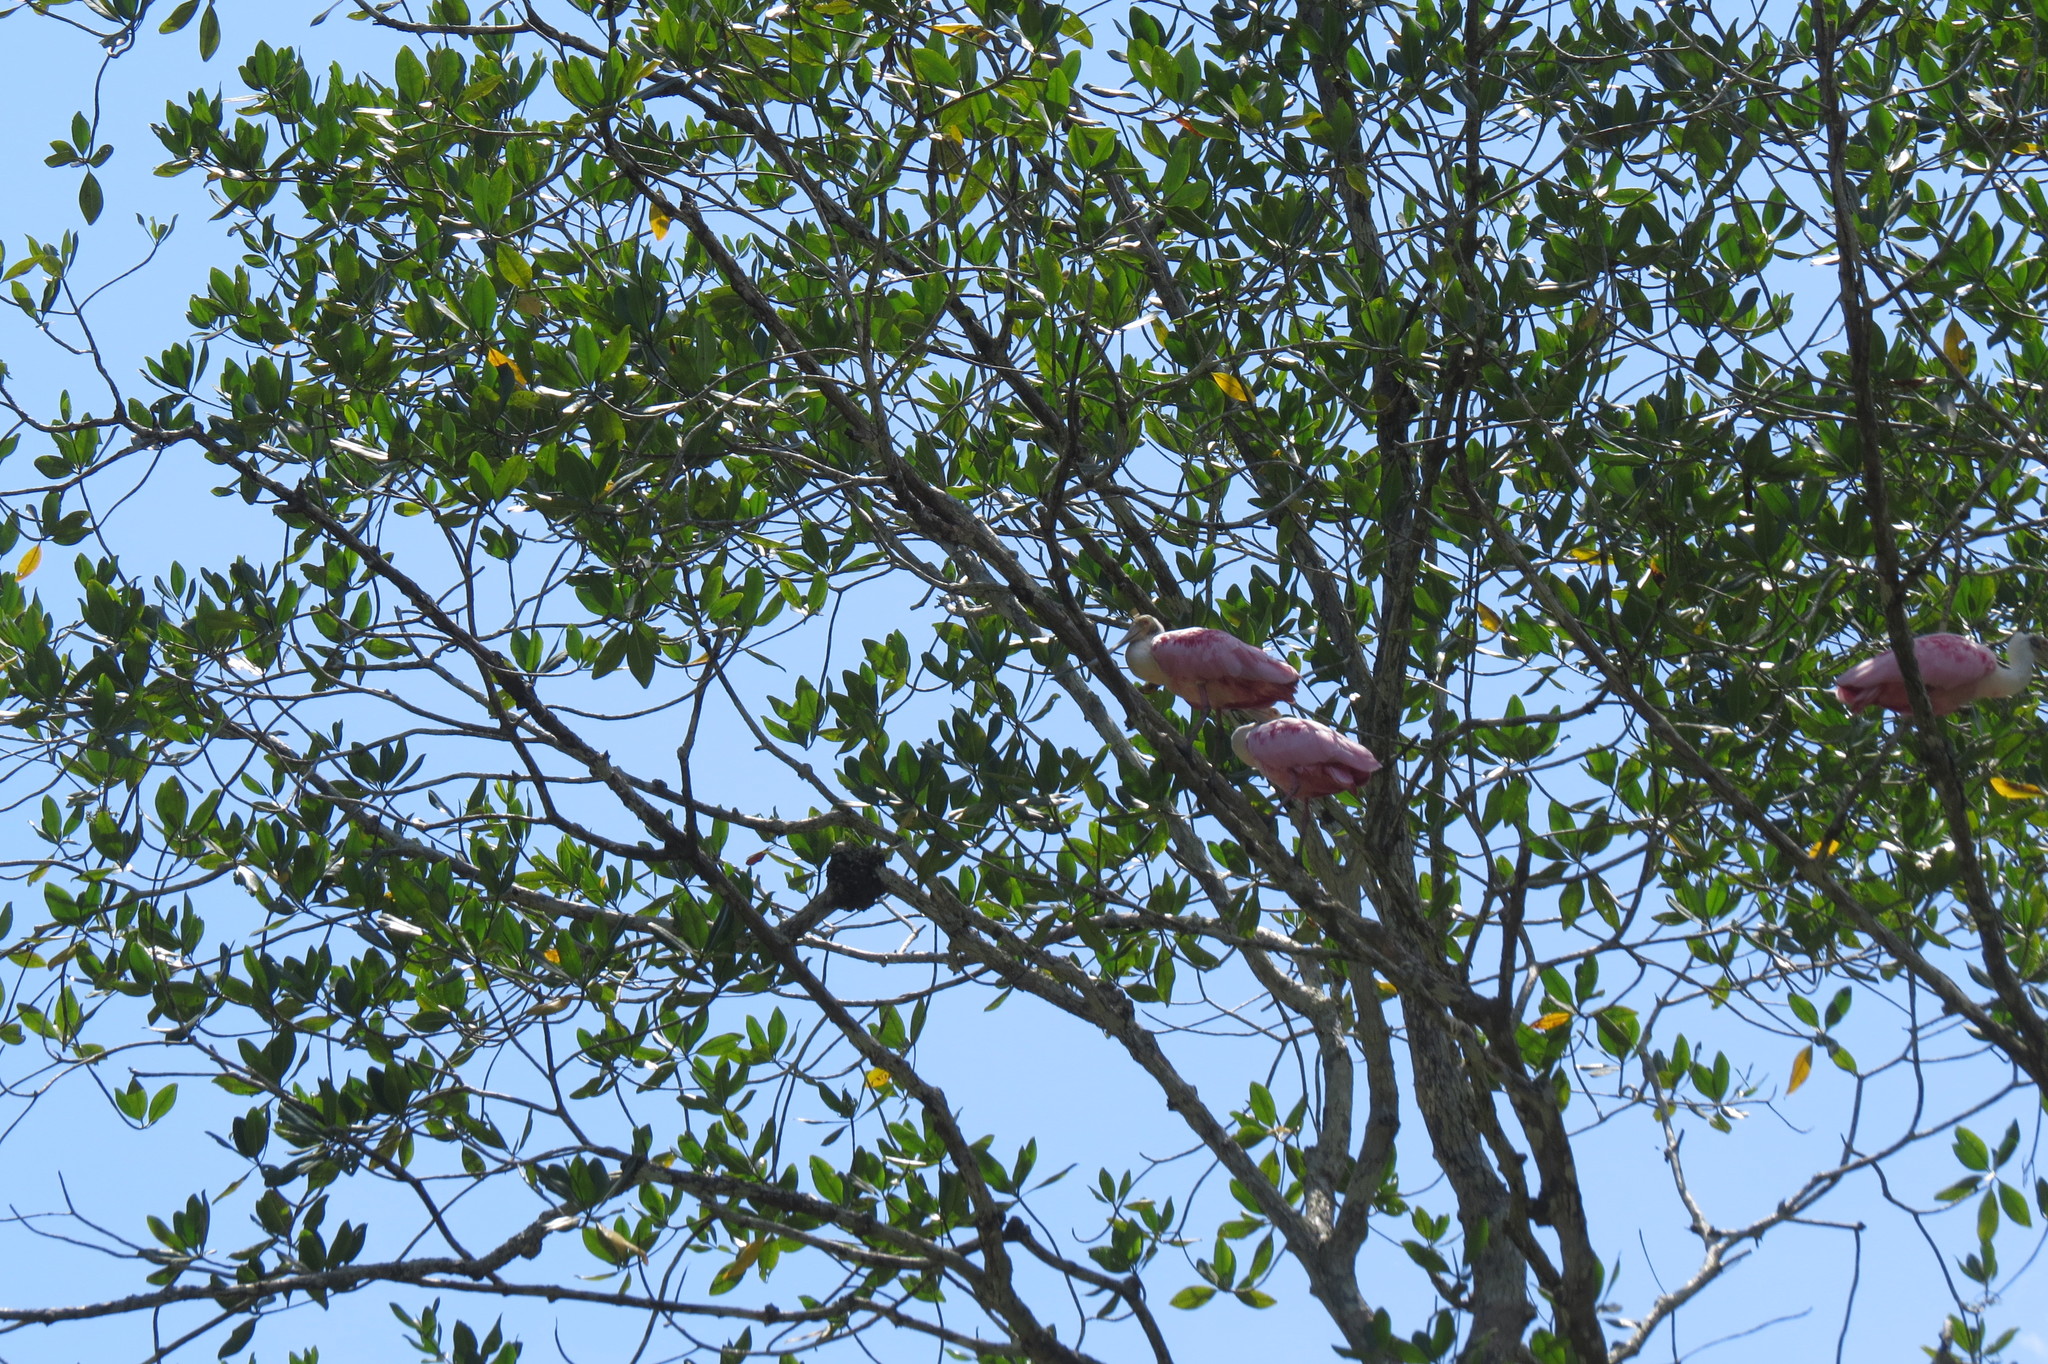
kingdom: Animalia
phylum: Chordata
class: Aves
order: Pelecaniformes
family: Threskiornithidae
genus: Platalea
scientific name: Platalea ajaja
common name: Roseate spoonbill
